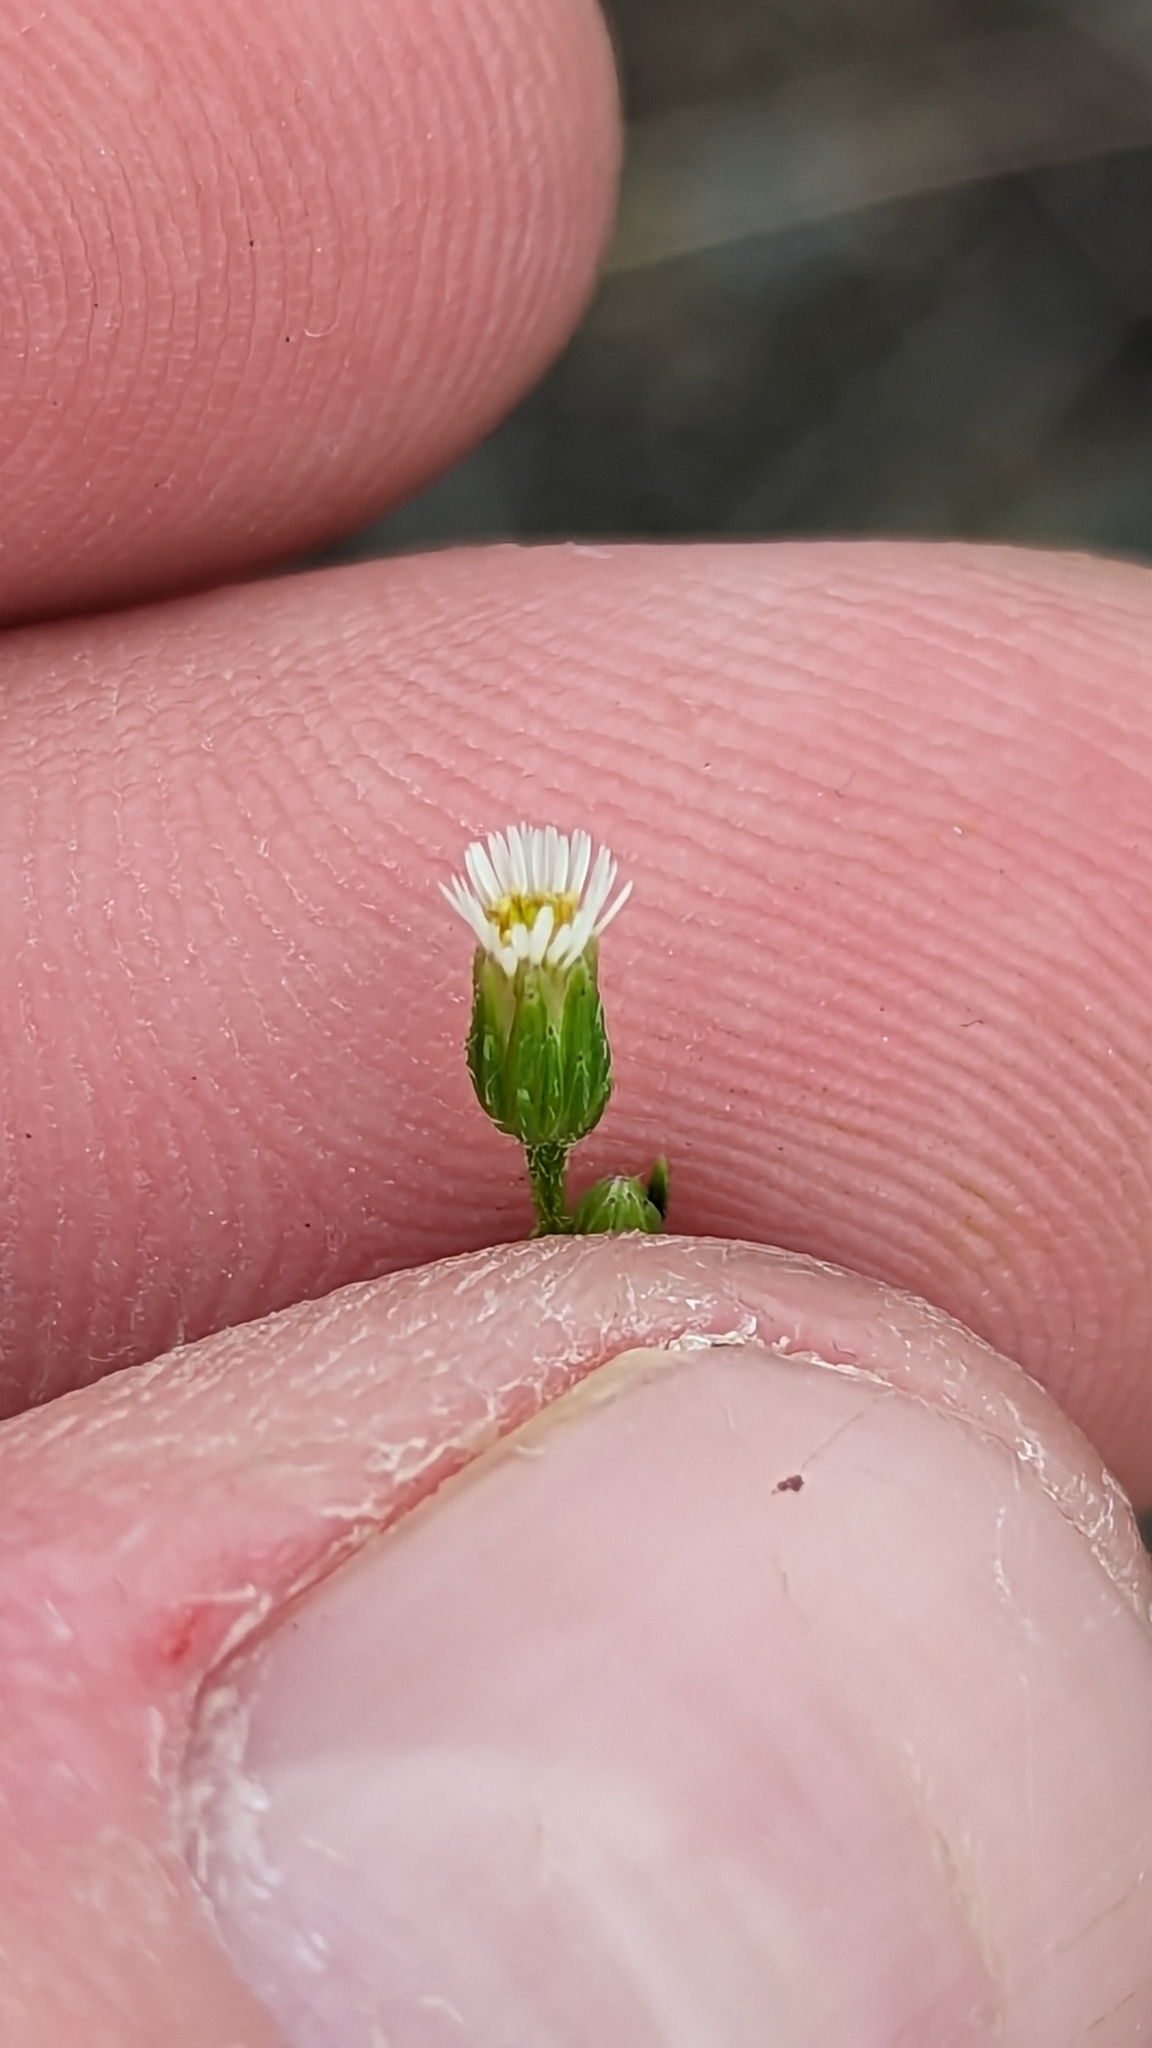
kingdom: Plantae
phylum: Tracheophyta
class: Magnoliopsida
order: Asterales
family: Asteraceae
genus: Erigeron
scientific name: Erigeron canadensis
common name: Canadian fleabane
